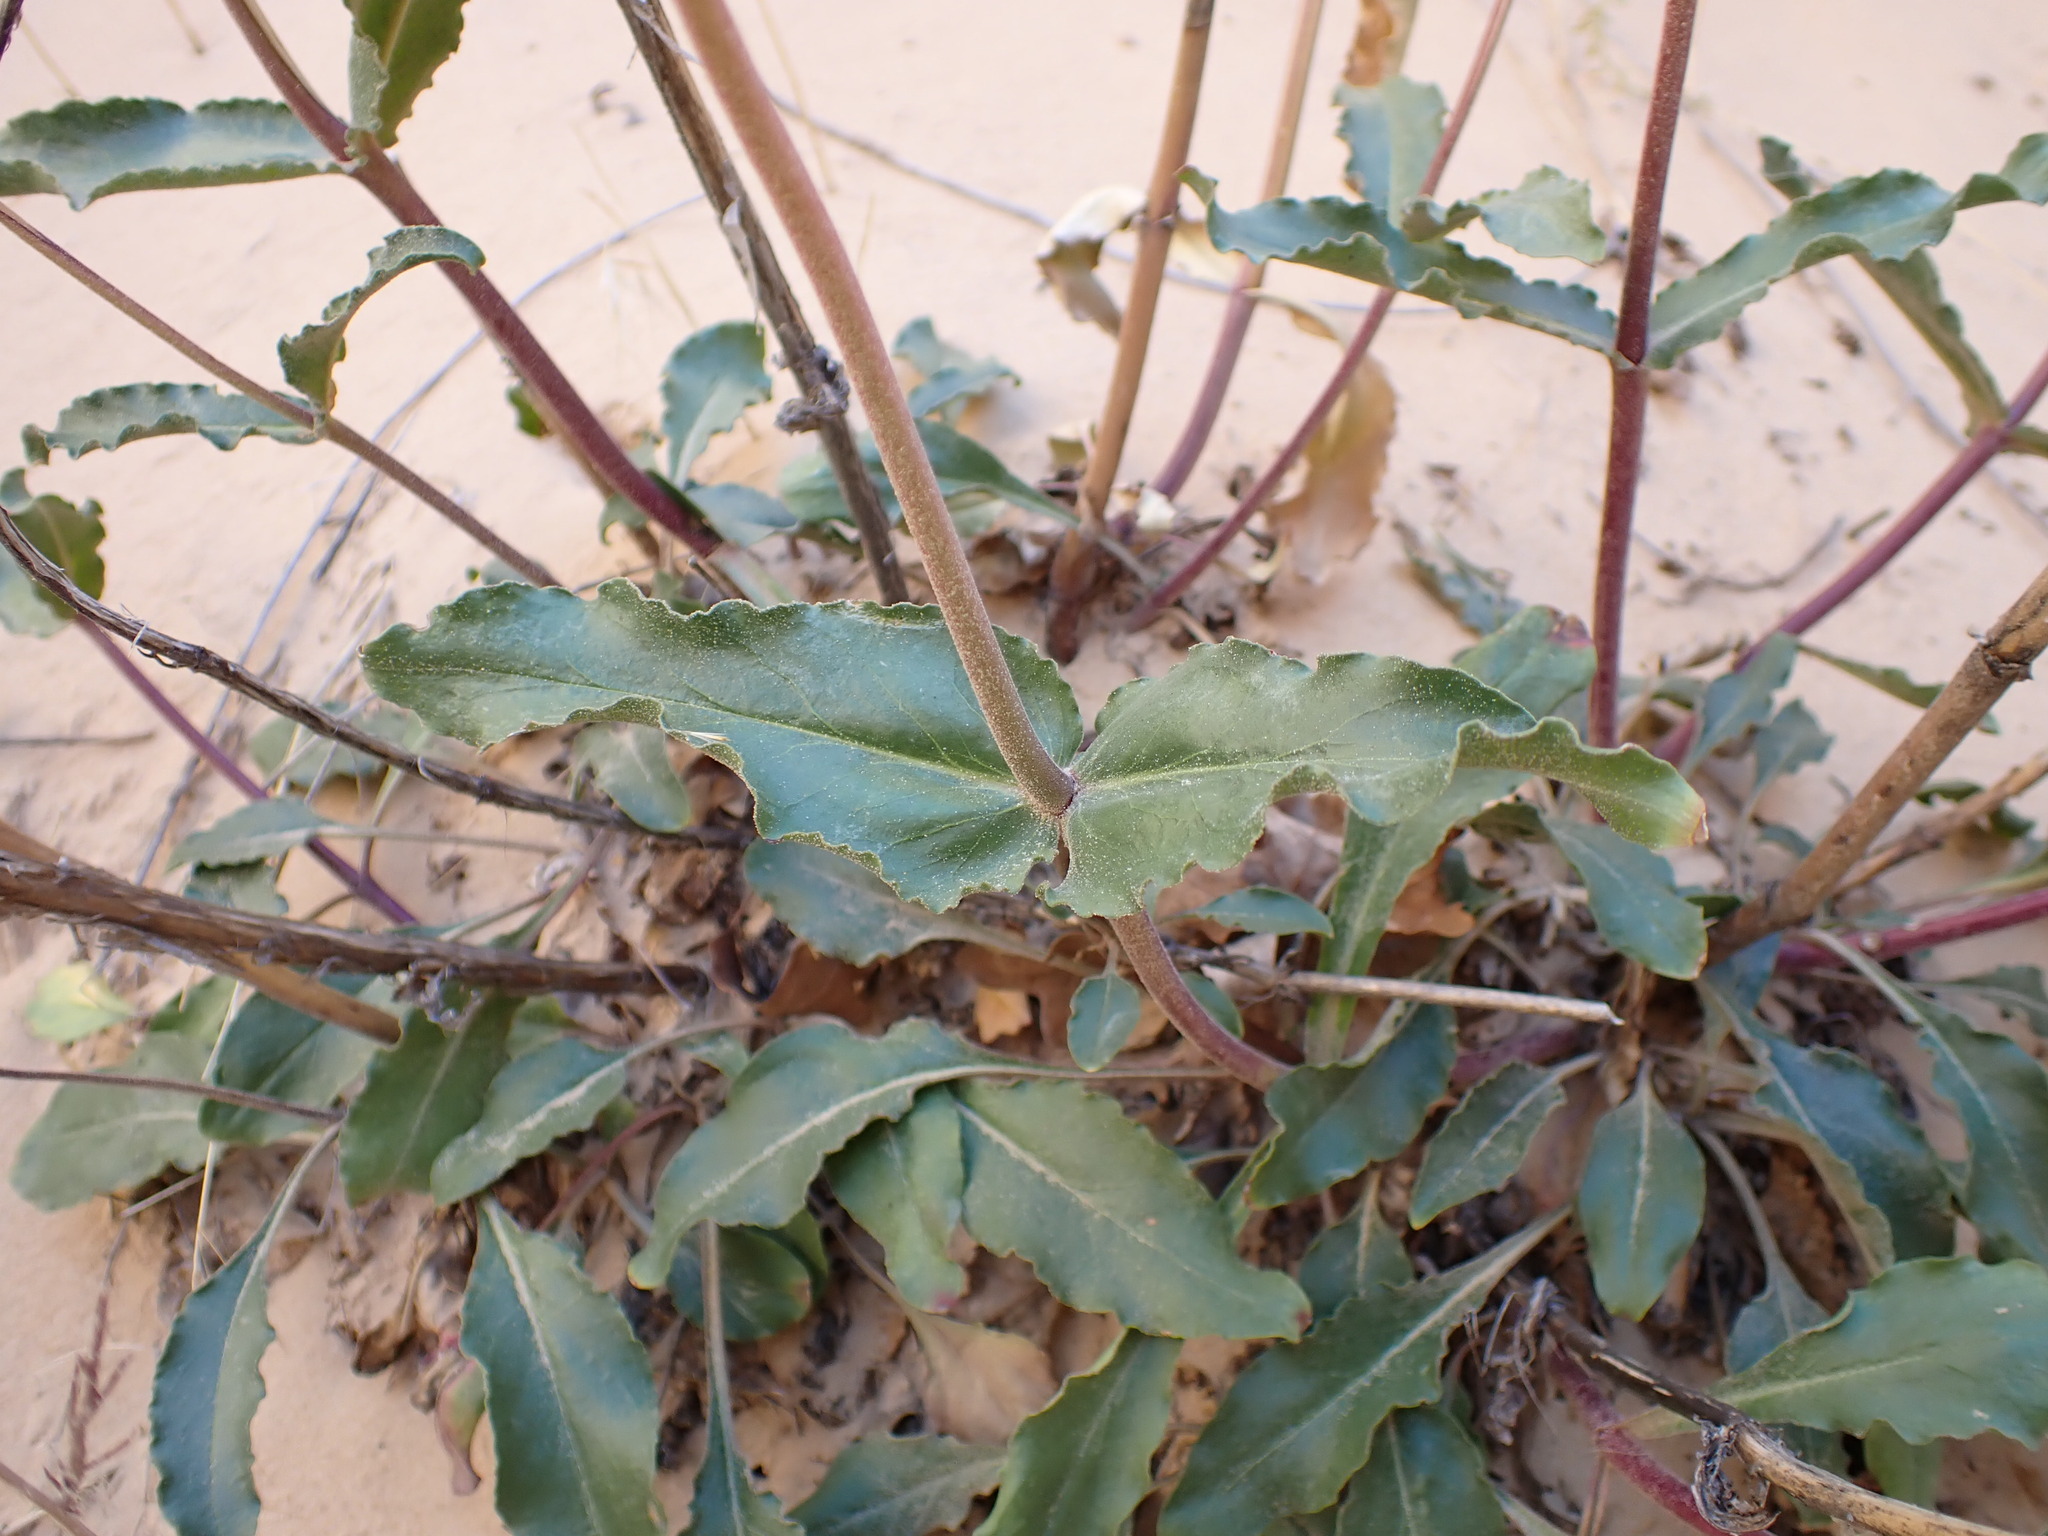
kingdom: Plantae
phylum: Tracheophyta
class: Magnoliopsida
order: Lamiales
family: Plantaginaceae
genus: Penstemon
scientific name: Penstemon eatonii
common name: Eaton's penstemon
